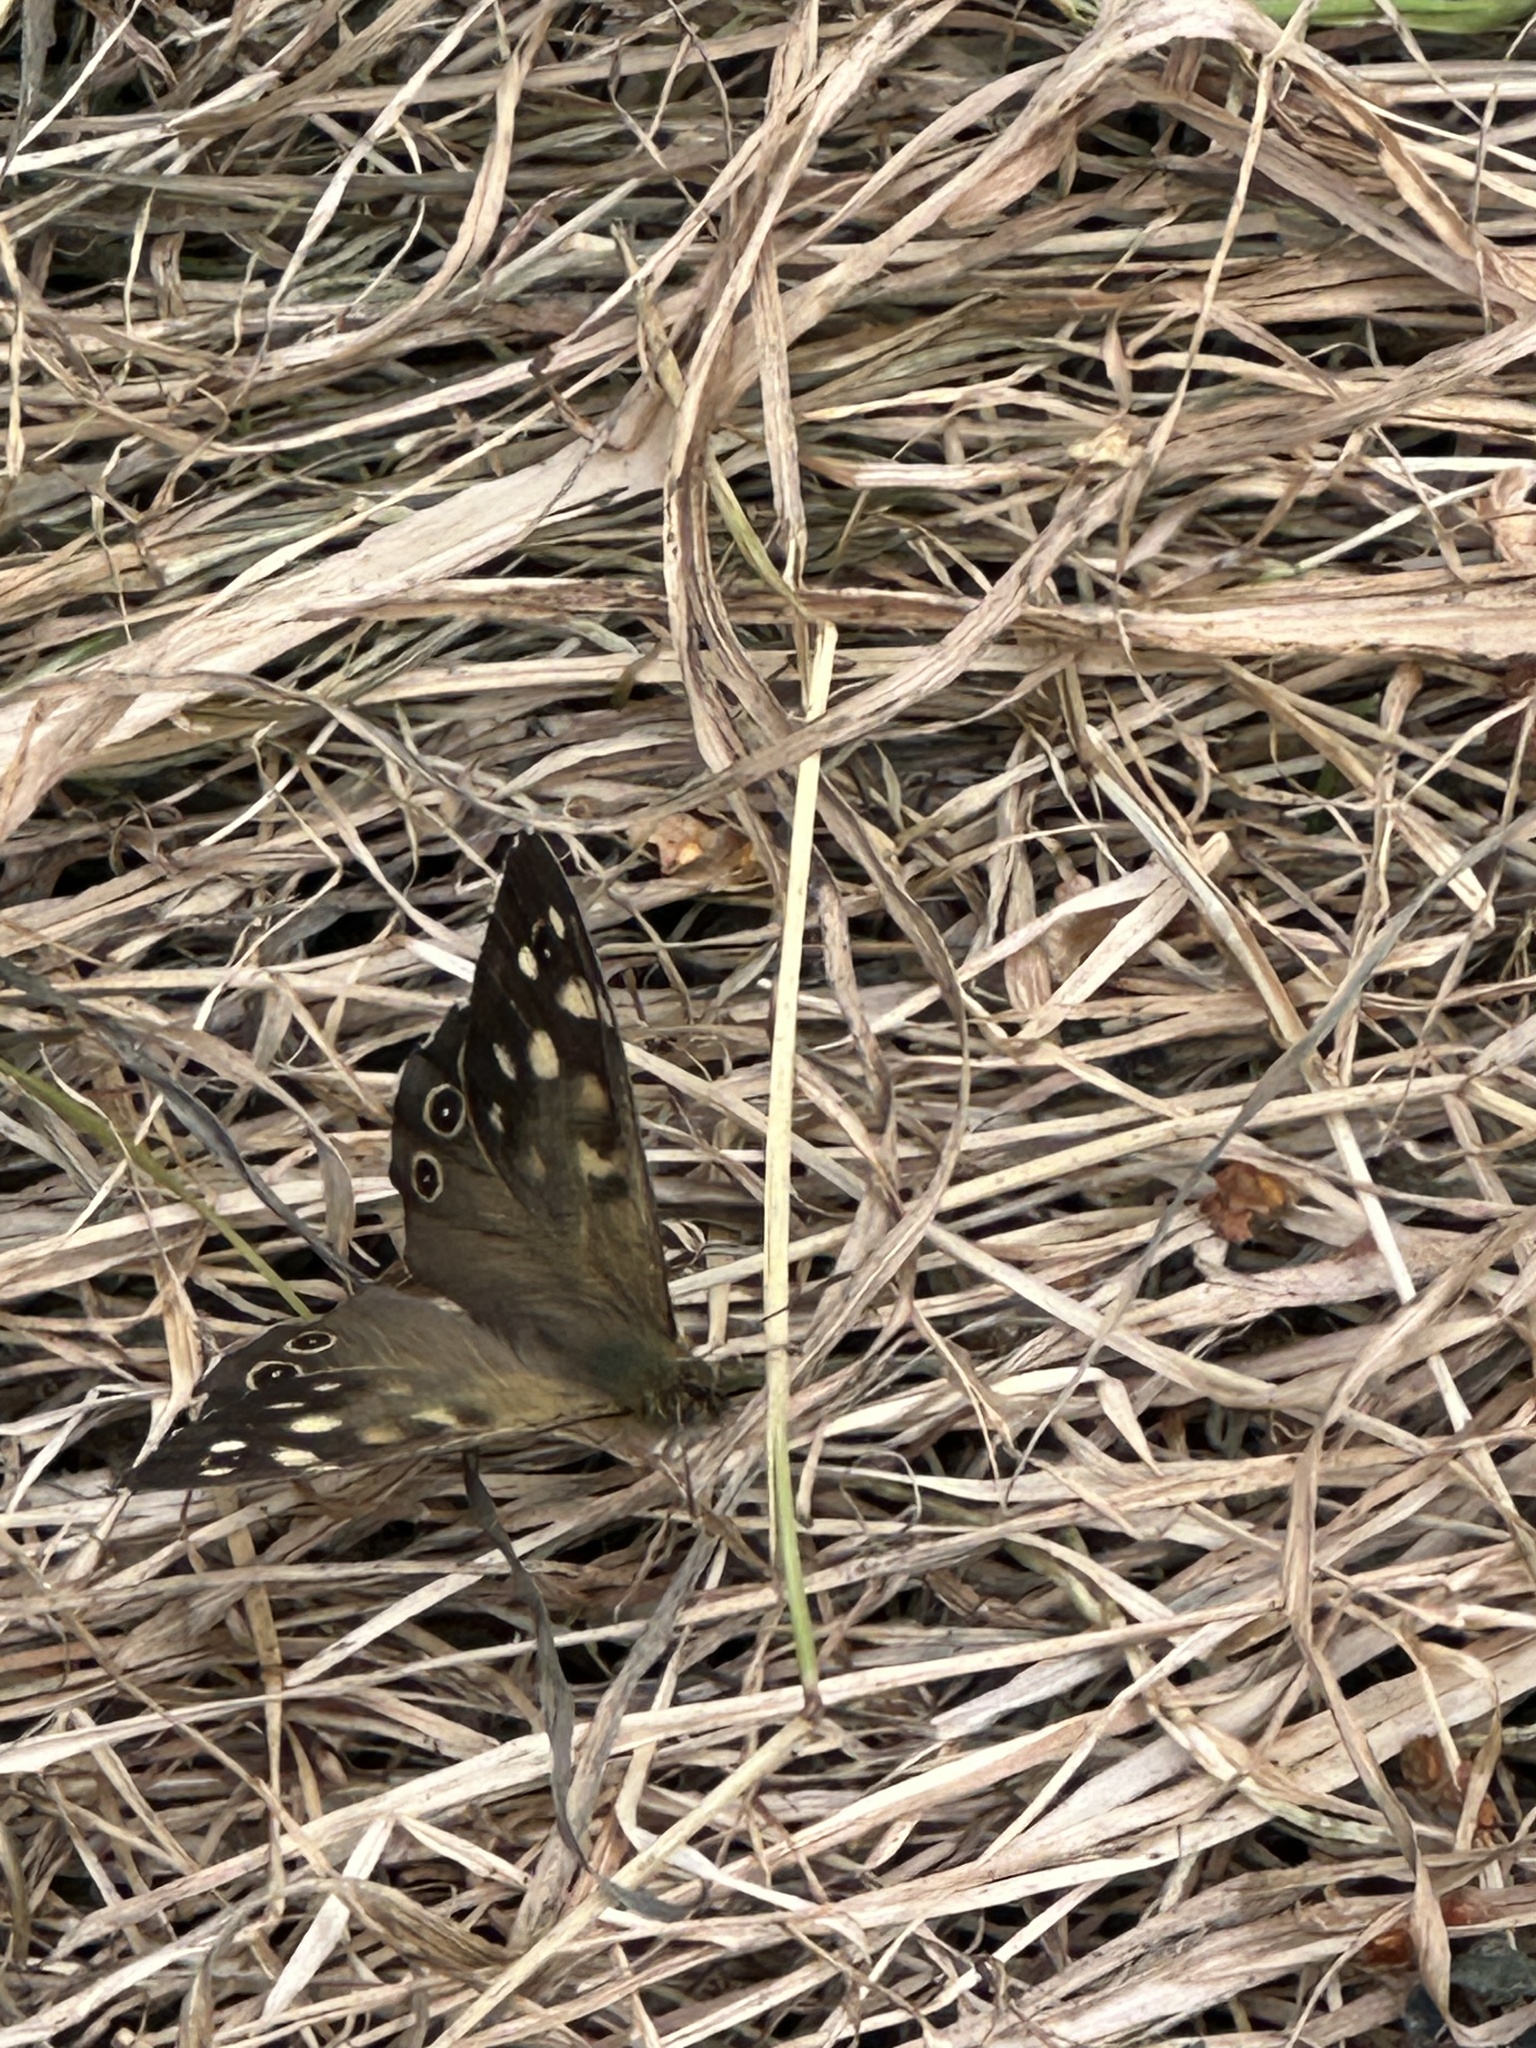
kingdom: Animalia
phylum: Arthropoda
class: Insecta
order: Lepidoptera
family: Nymphalidae
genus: Pararge
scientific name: Pararge aegeria
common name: Speckled wood
